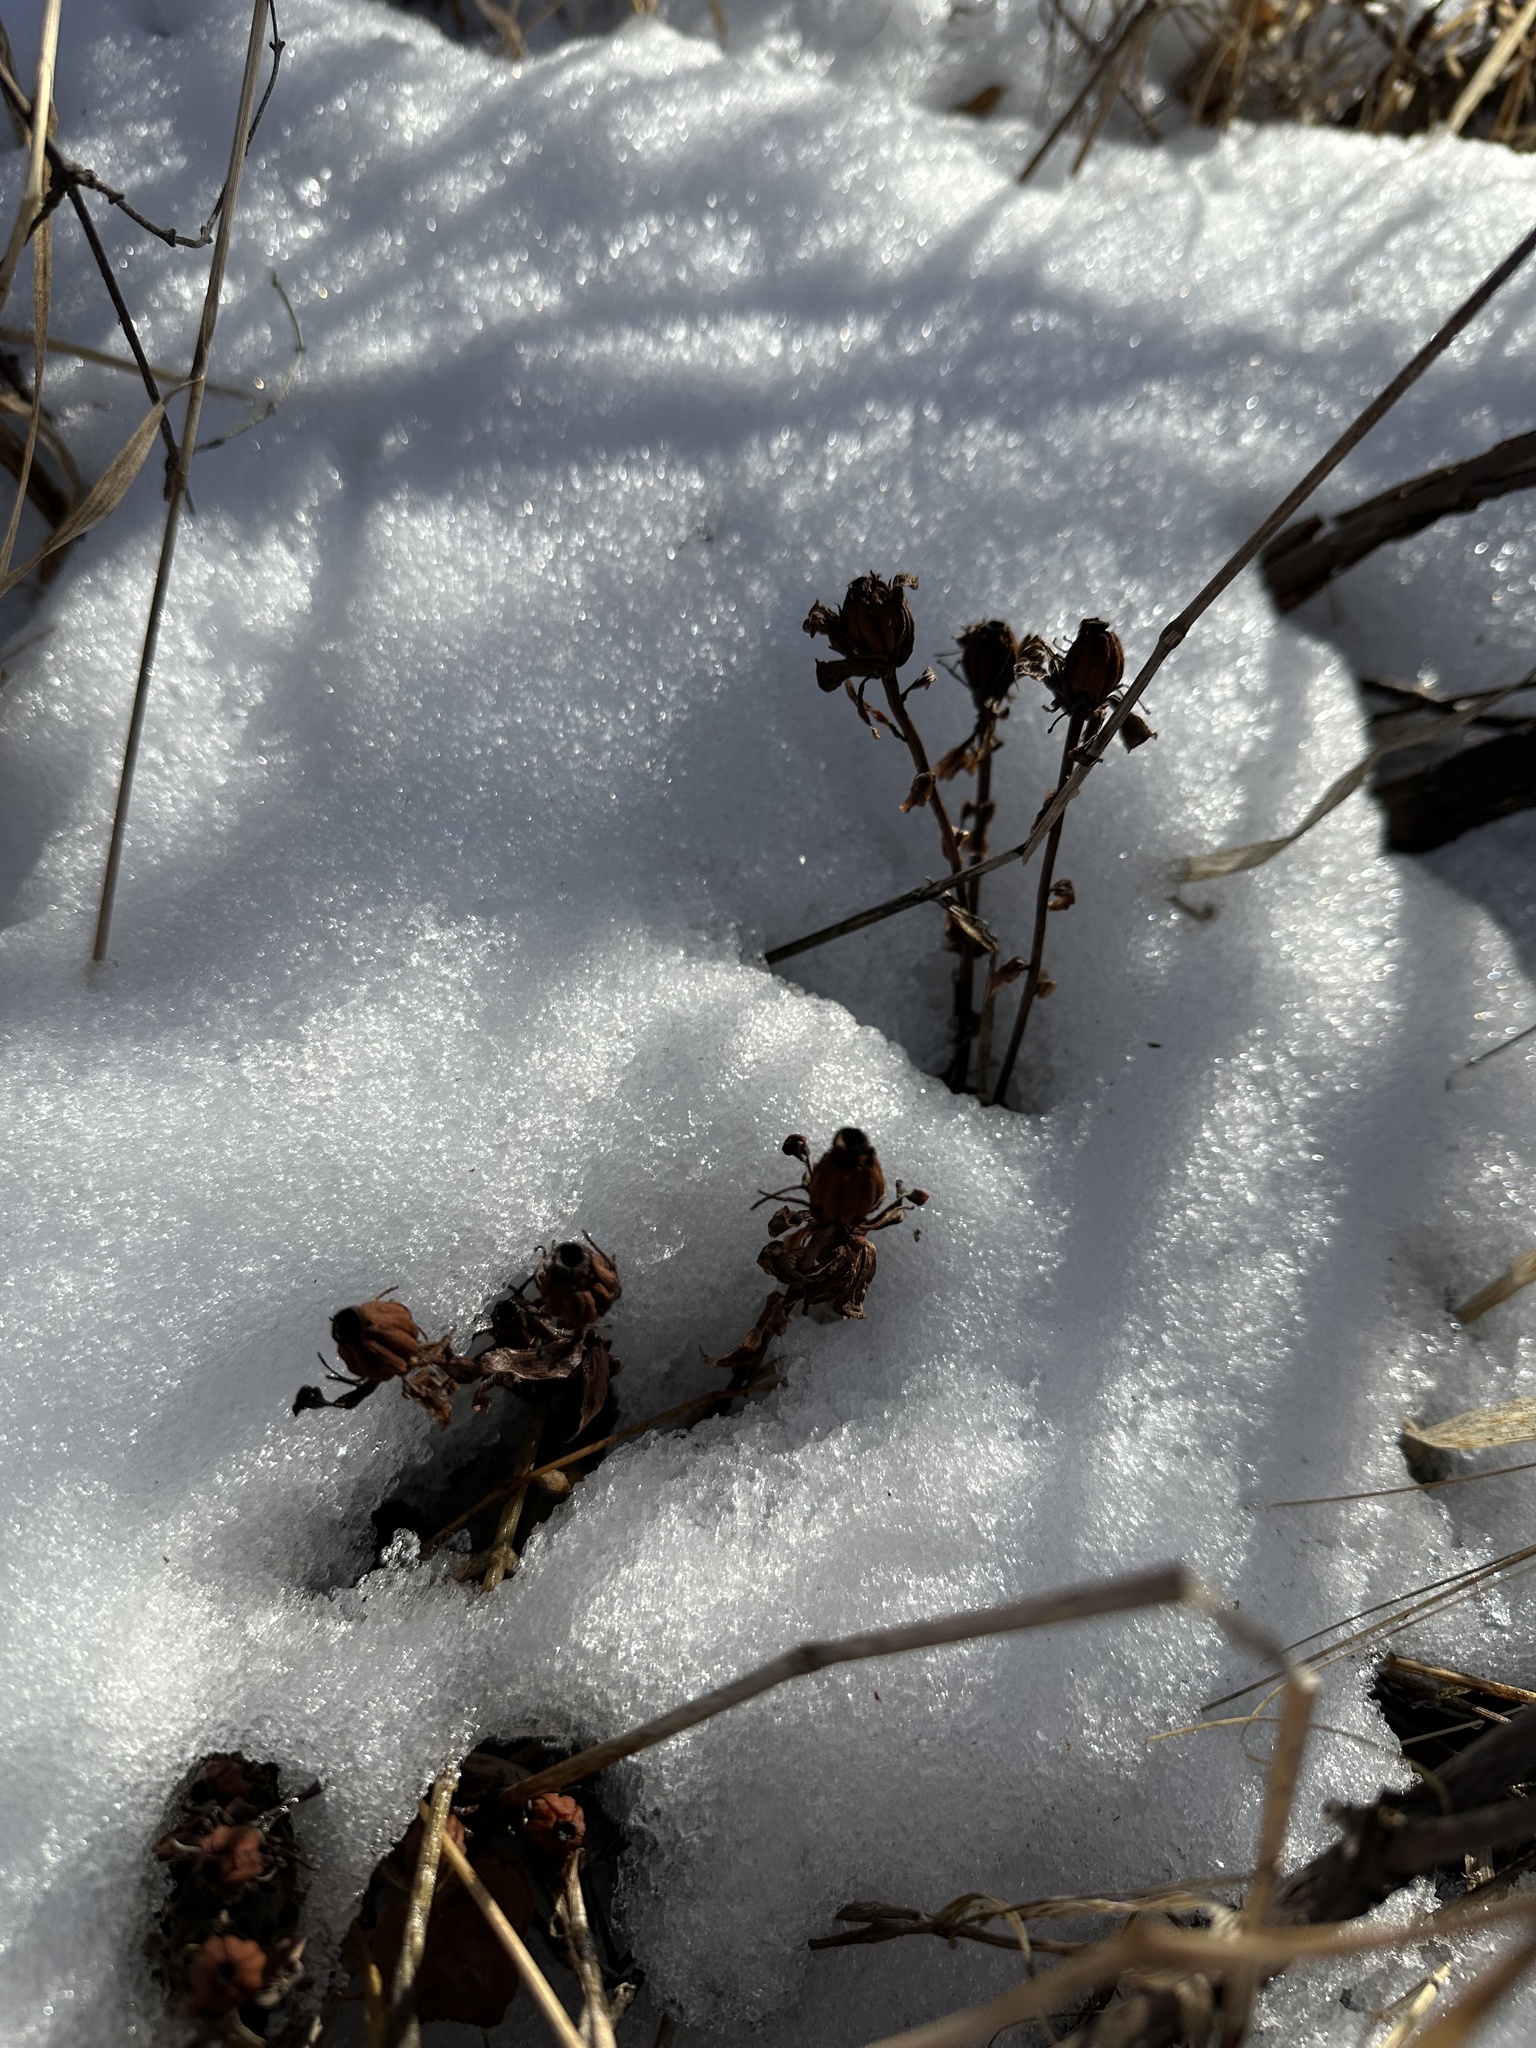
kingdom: Plantae
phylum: Tracheophyta
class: Magnoliopsida
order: Ericales
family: Ericaceae
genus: Monotropa
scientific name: Monotropa uniflora
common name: Convulsion root
